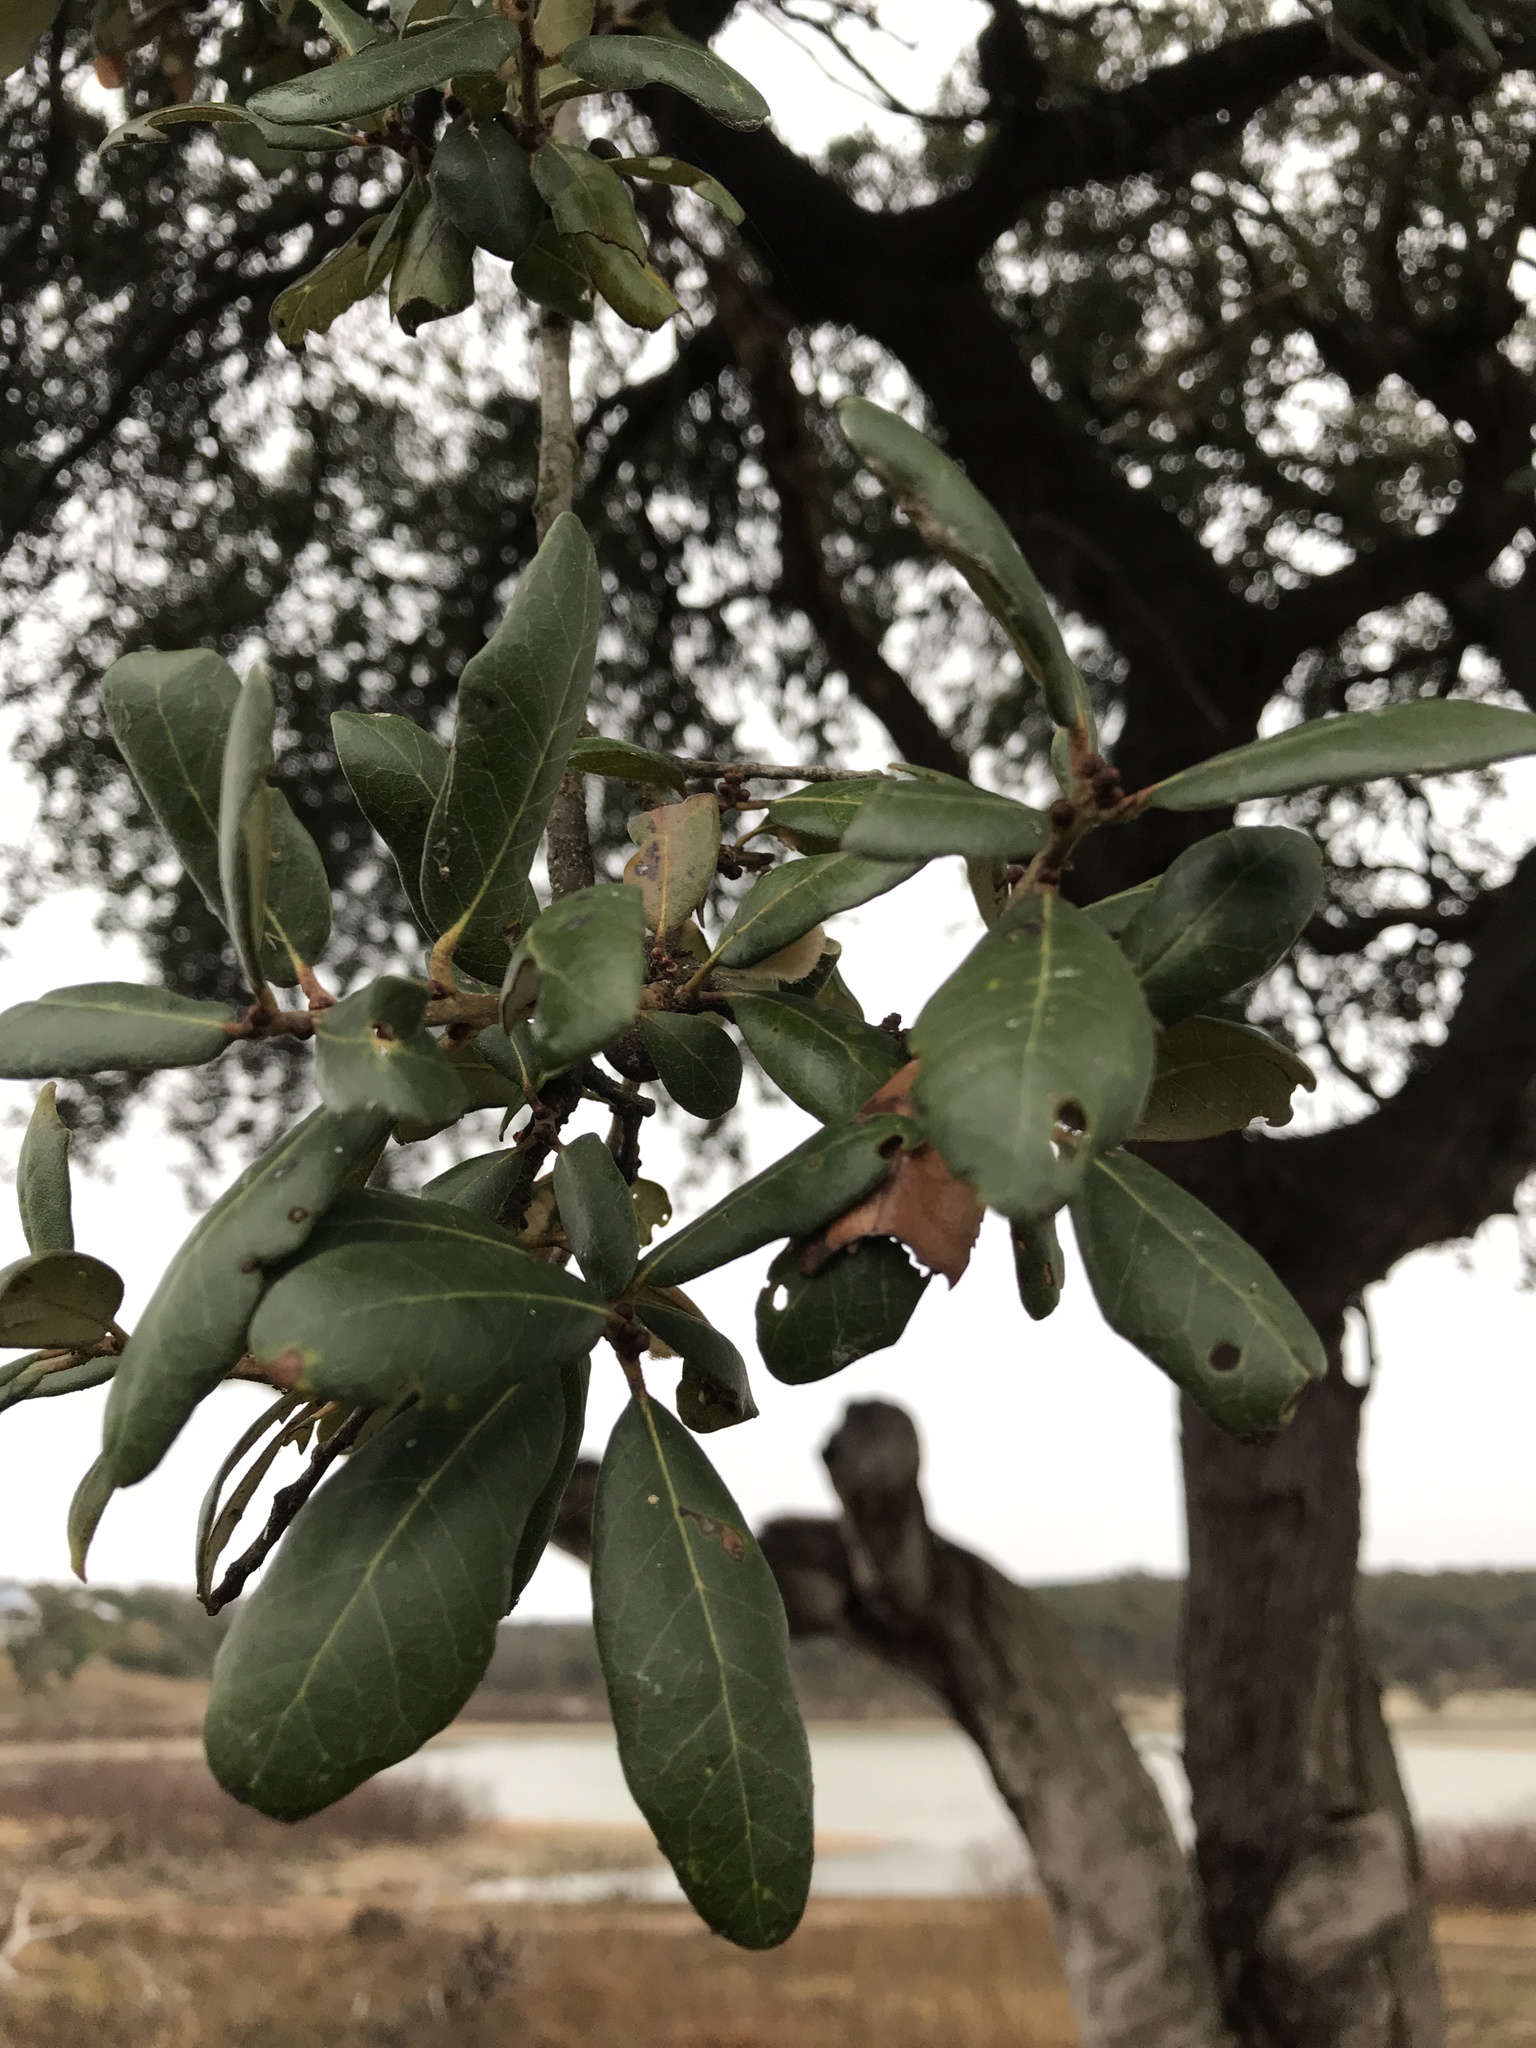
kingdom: Plantae
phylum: Tracheophyta
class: Magnoliopsida
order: Fagales
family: Fagaceae
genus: Quercus
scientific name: Quercus fusiformis
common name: Texas live oak
